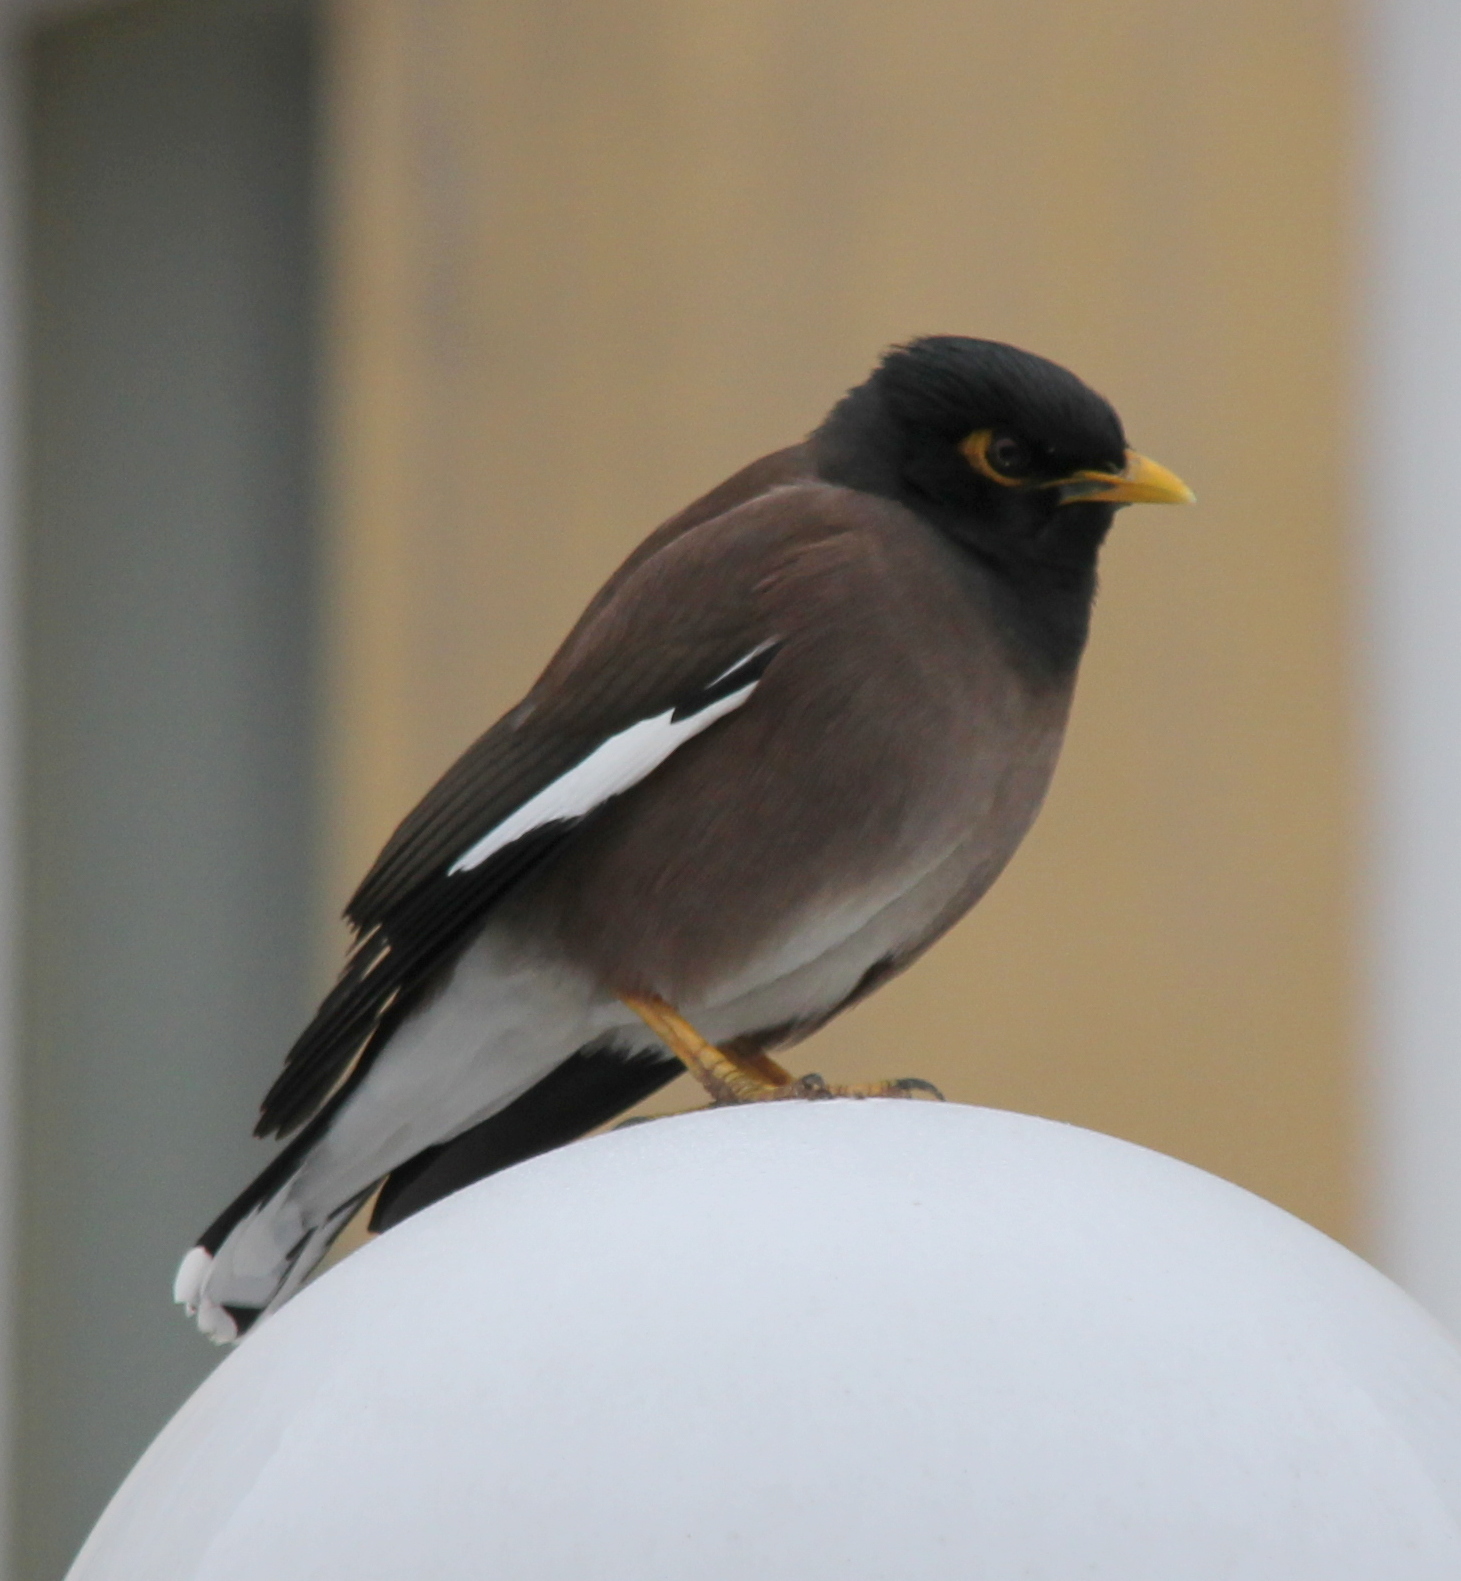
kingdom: Animalia
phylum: Chordata
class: Aves
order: Passeriformes
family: Sturnidae
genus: Acridotheres
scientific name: Acridotheres tristis
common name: Common myna
